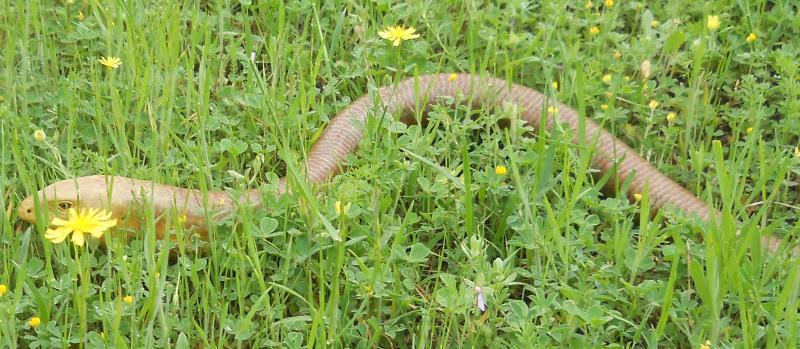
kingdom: Animalia
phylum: Chordata
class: Squamata
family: Anguidae
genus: Pseudopus
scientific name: Pseudopus apodus
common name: European glass lizard
